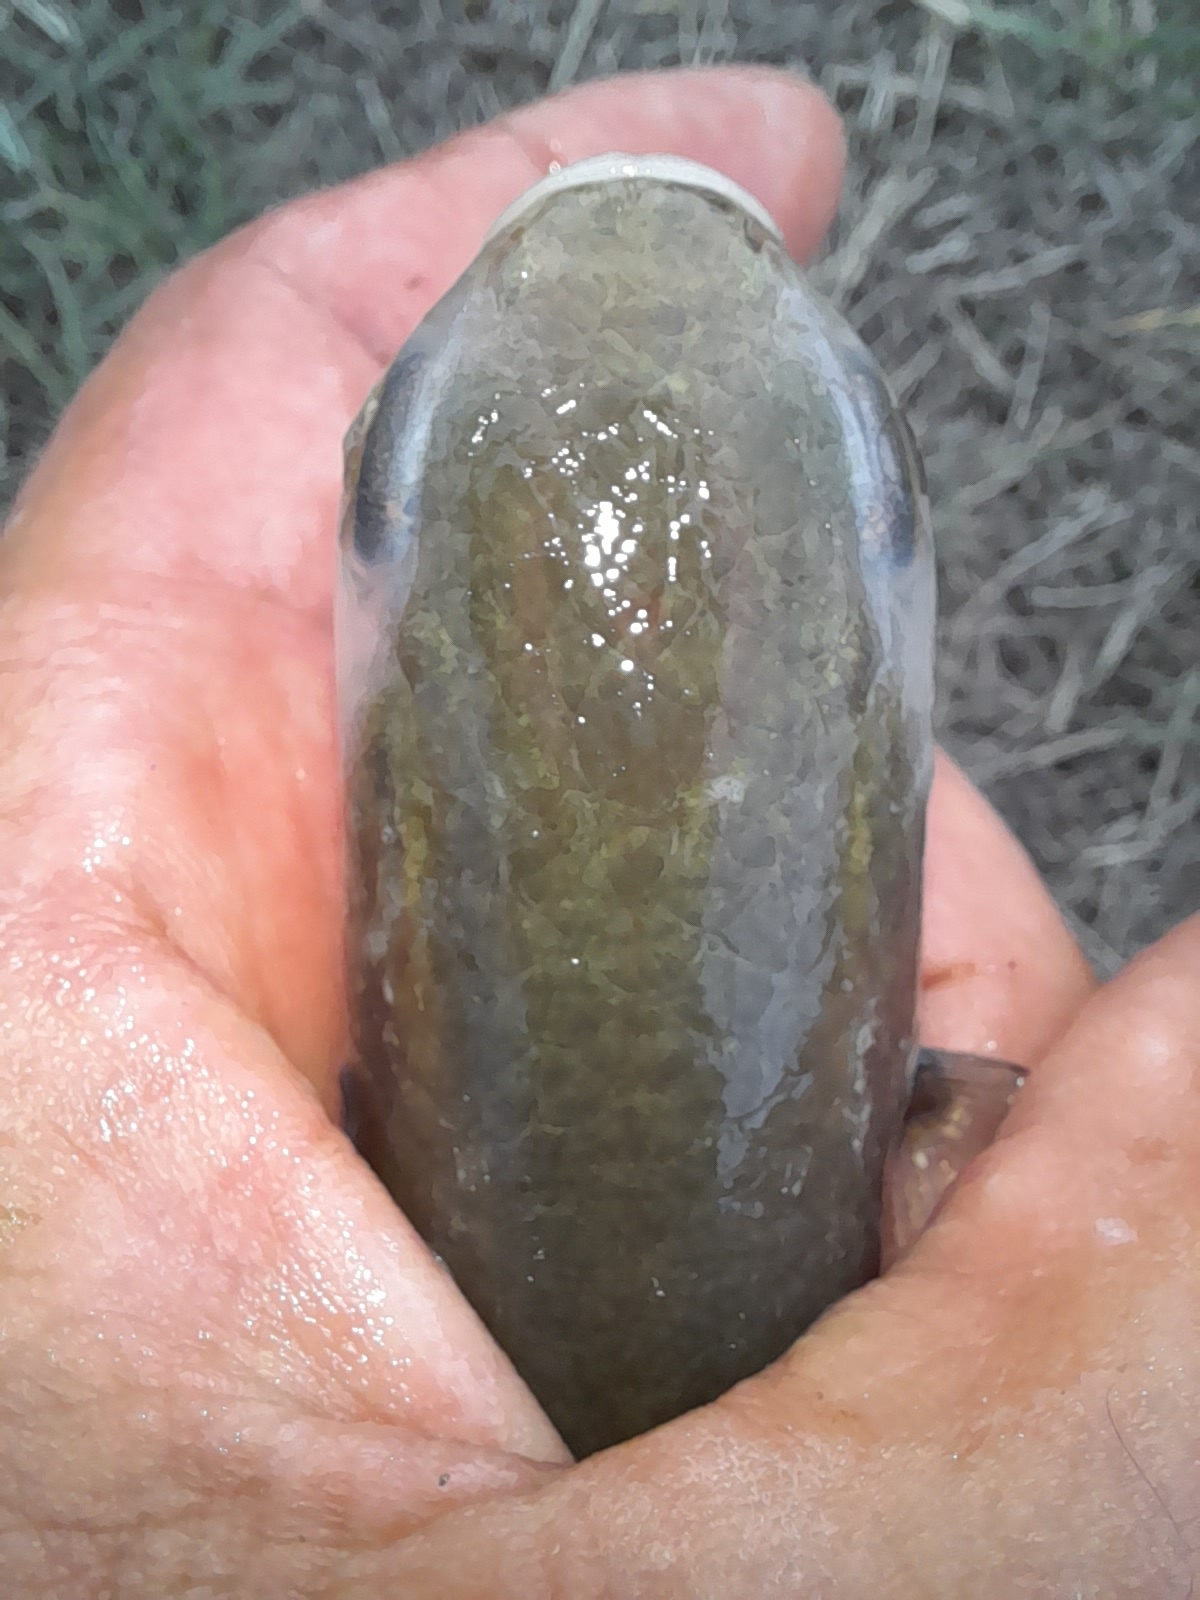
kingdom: Animalia
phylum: Chordata
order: Mugiliformes
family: Mugilidae
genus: Mugil
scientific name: Mugil cephalus
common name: Grey mullet
